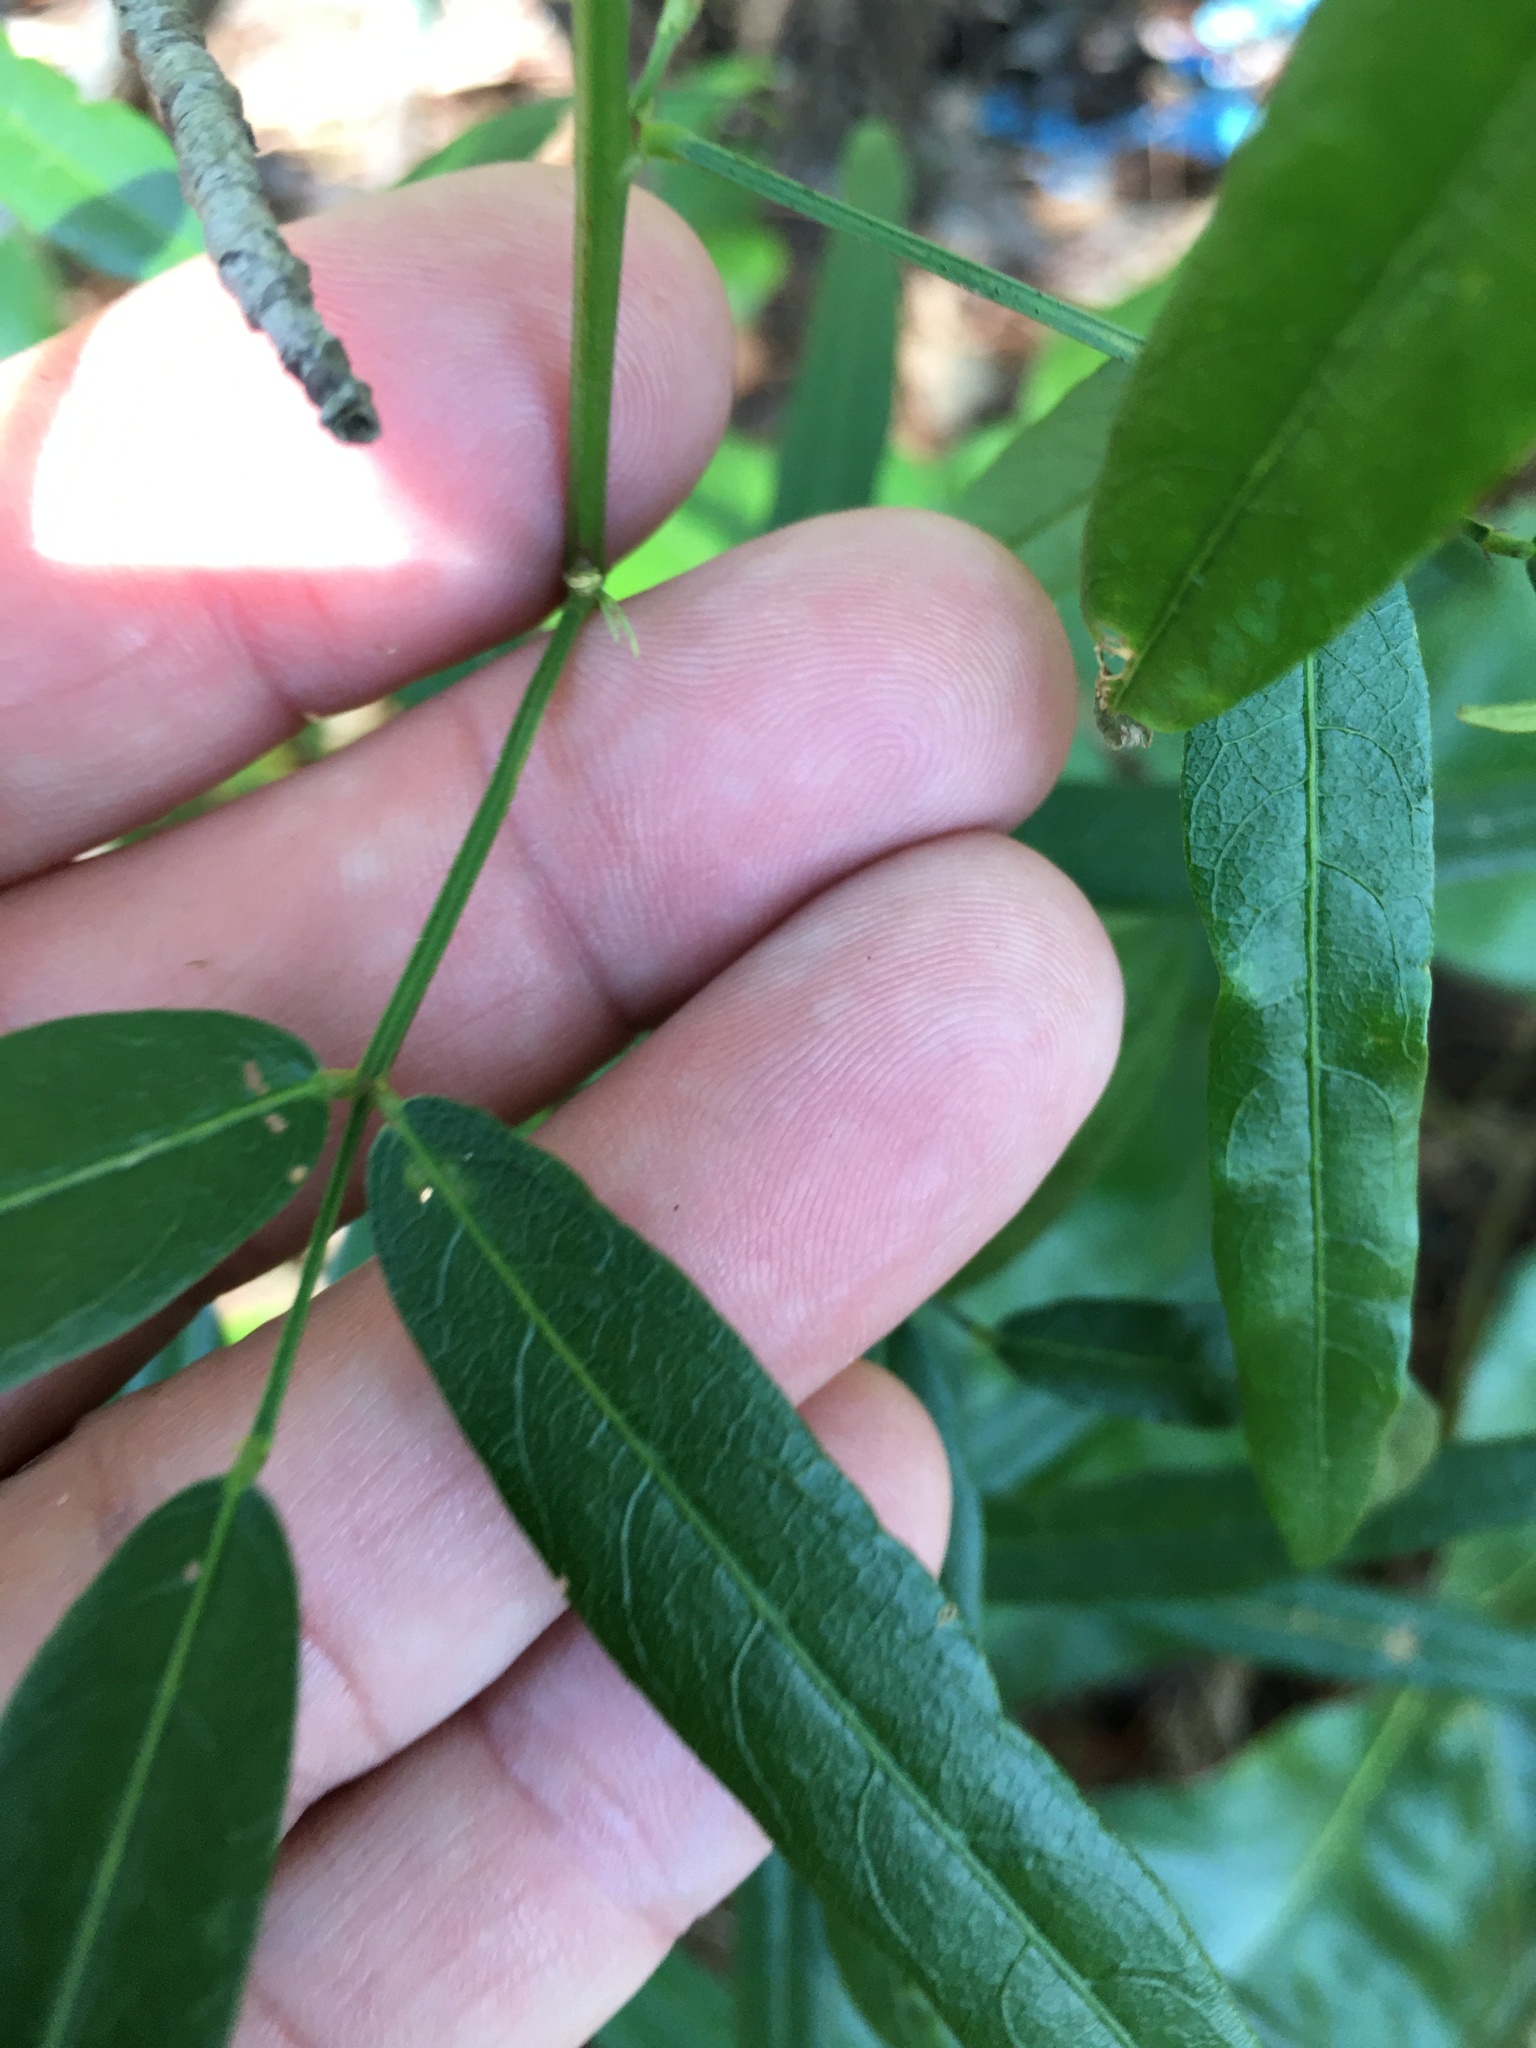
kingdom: Plantae
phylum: Tracheophyta
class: Magnoliopsida
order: Fabales
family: Fabaceae
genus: Desmodium
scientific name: Desmodium paniculatum
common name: Panicled tick-clover
